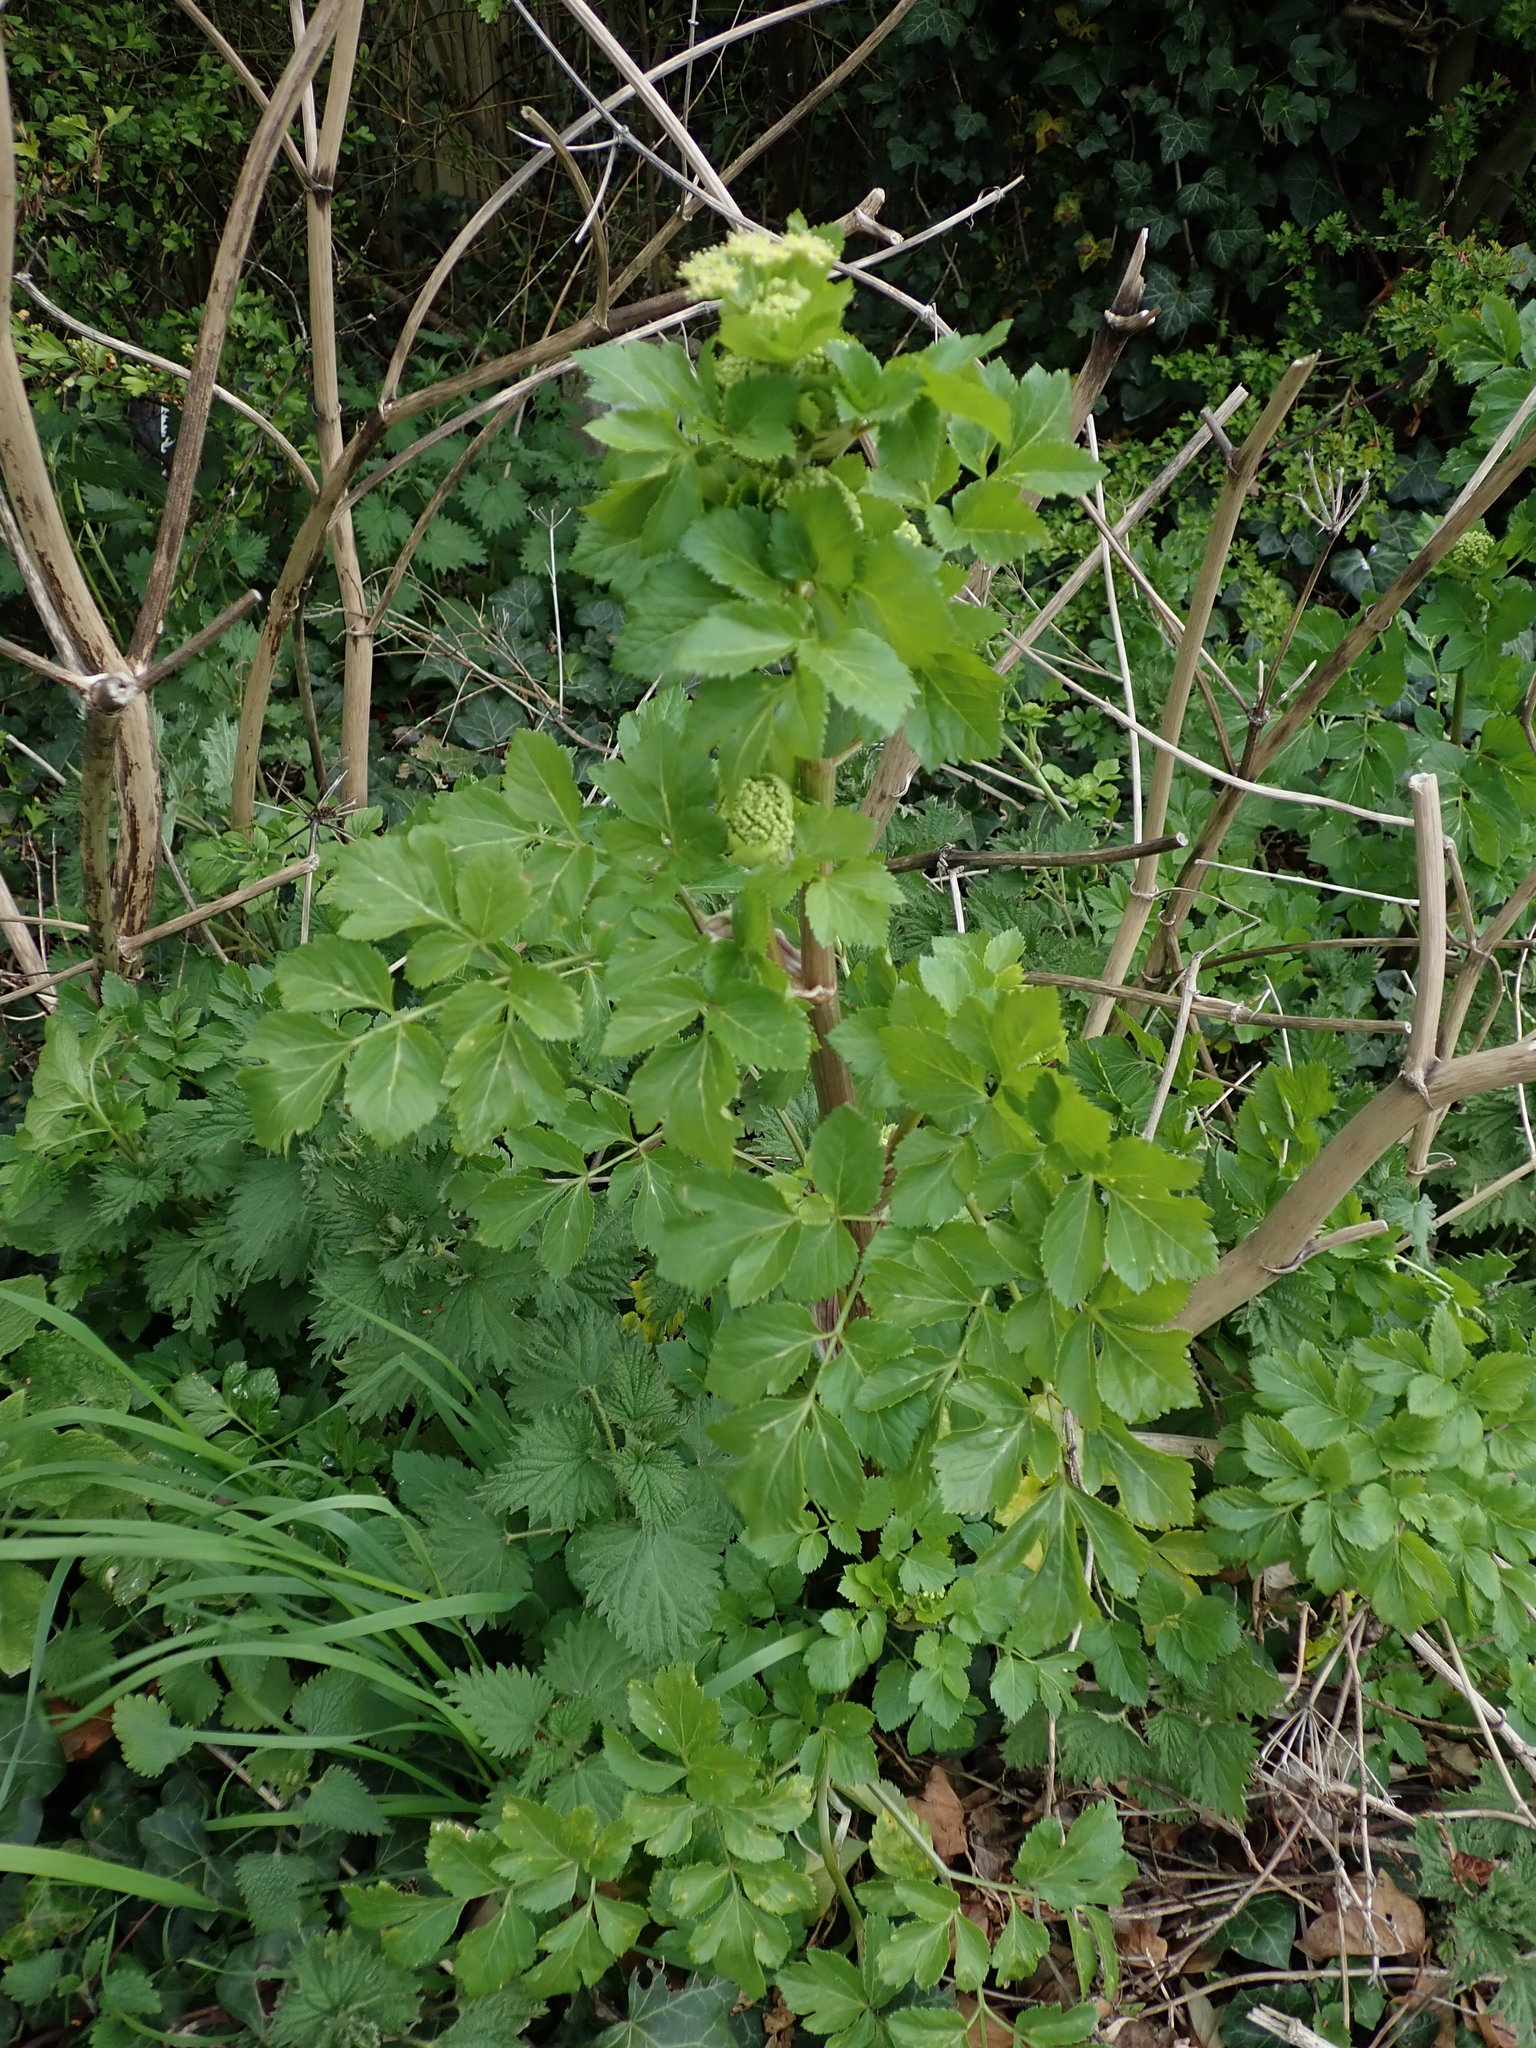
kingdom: Plantae
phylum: Tracheophyta
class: Magnoliopsida
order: Apiales
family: Apiaceae
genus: Smyrnium
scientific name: Smyrnium olusatrum
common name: Alexanders
